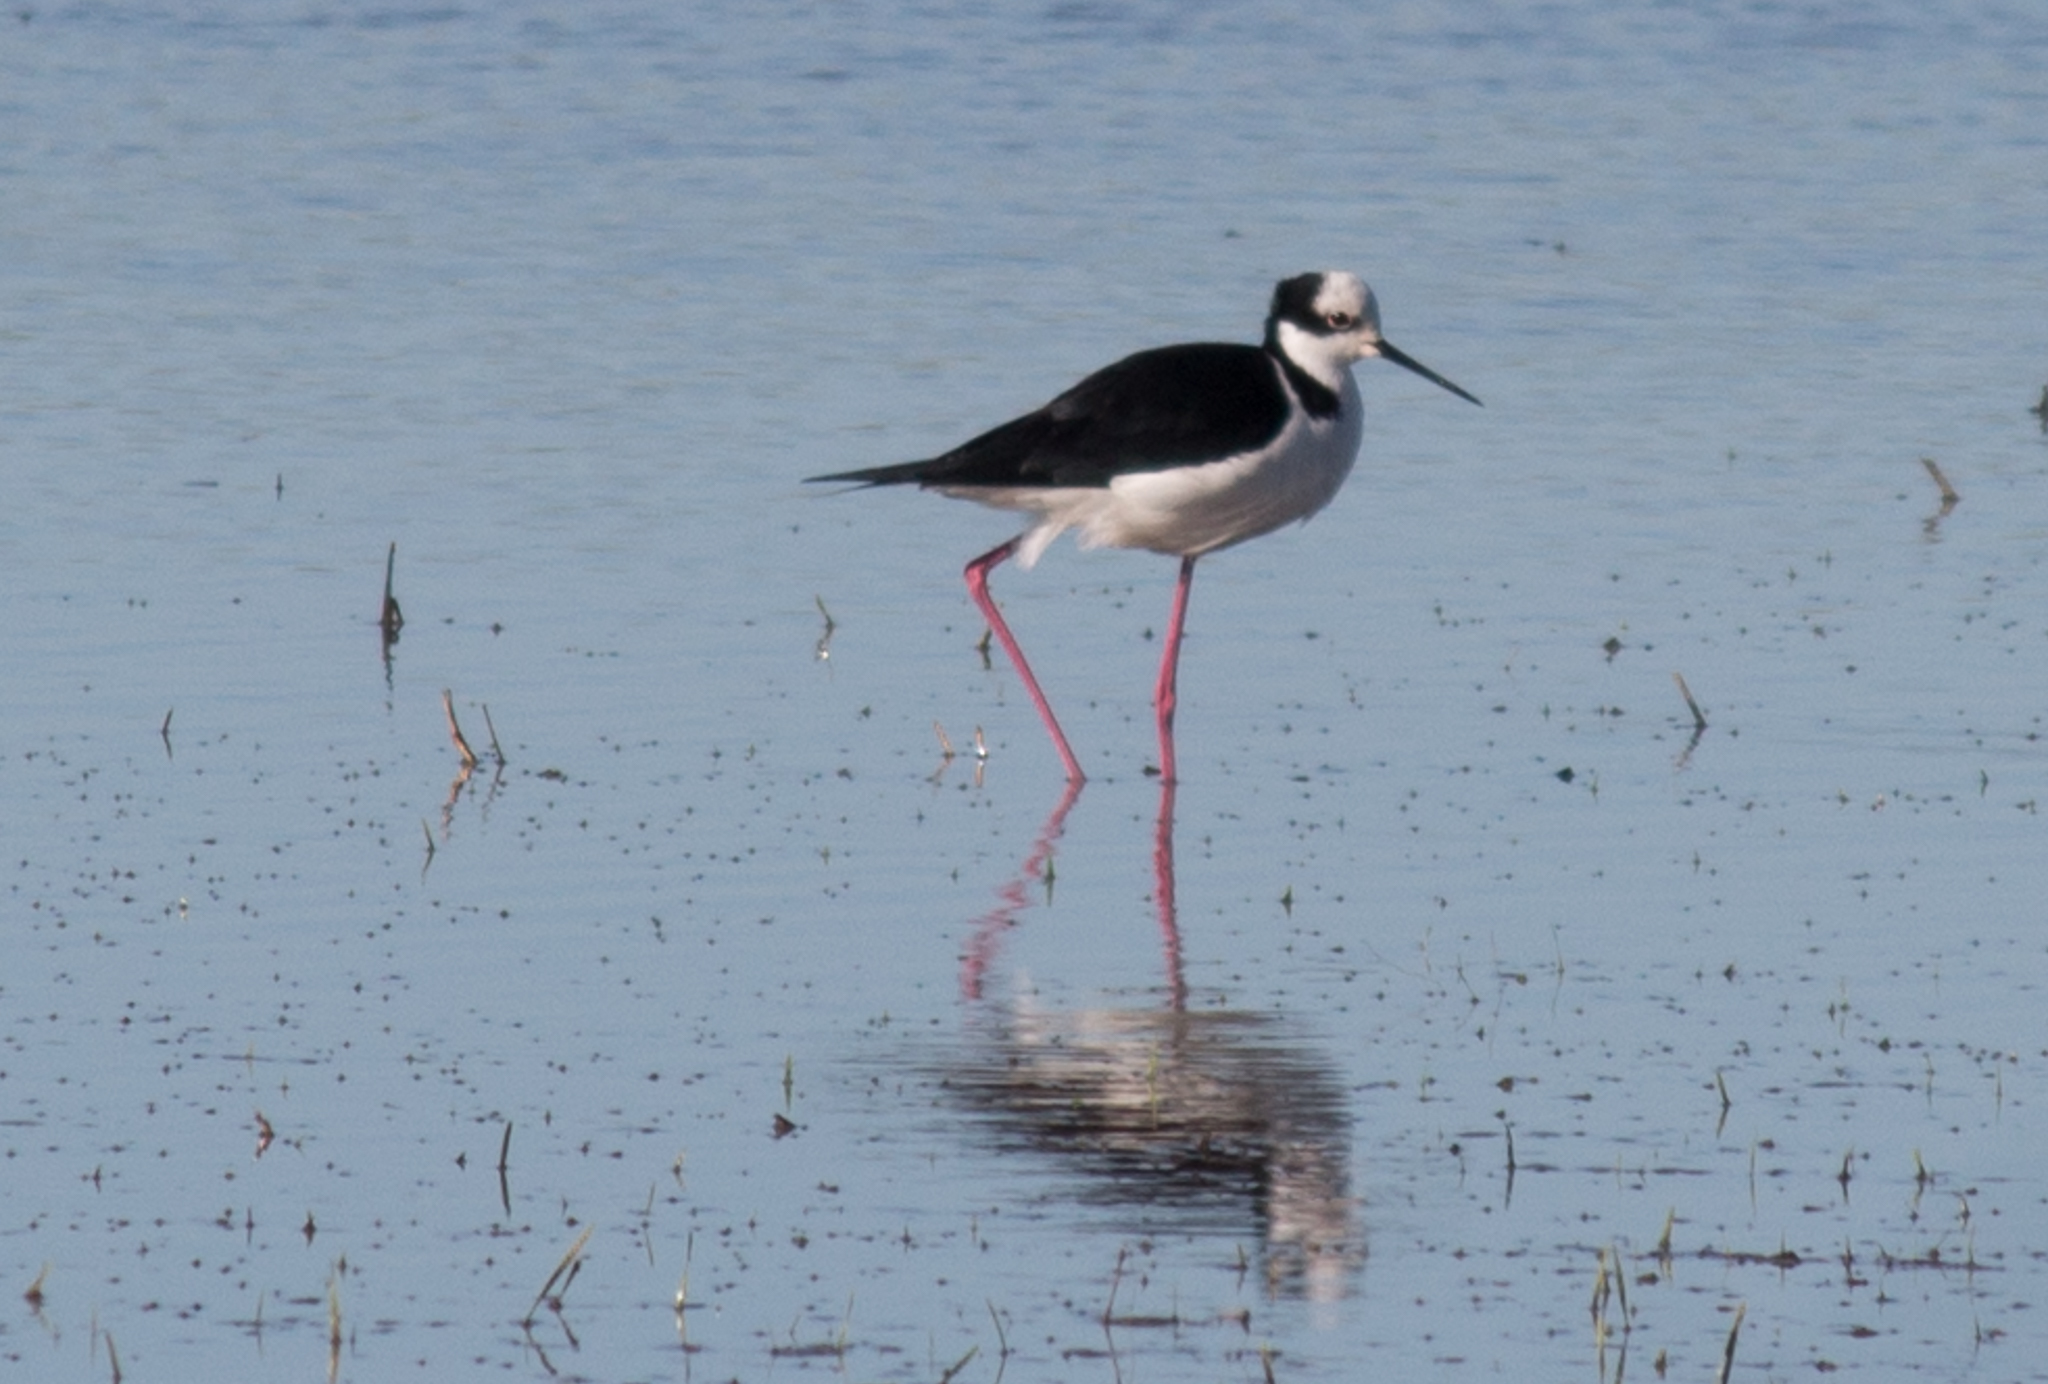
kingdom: Animalia
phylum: Chordata
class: Aves
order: Charadriiformes
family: Recurvirostridae
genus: Himantopus
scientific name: Himantopus mexicanus
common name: Black-necked stilt
